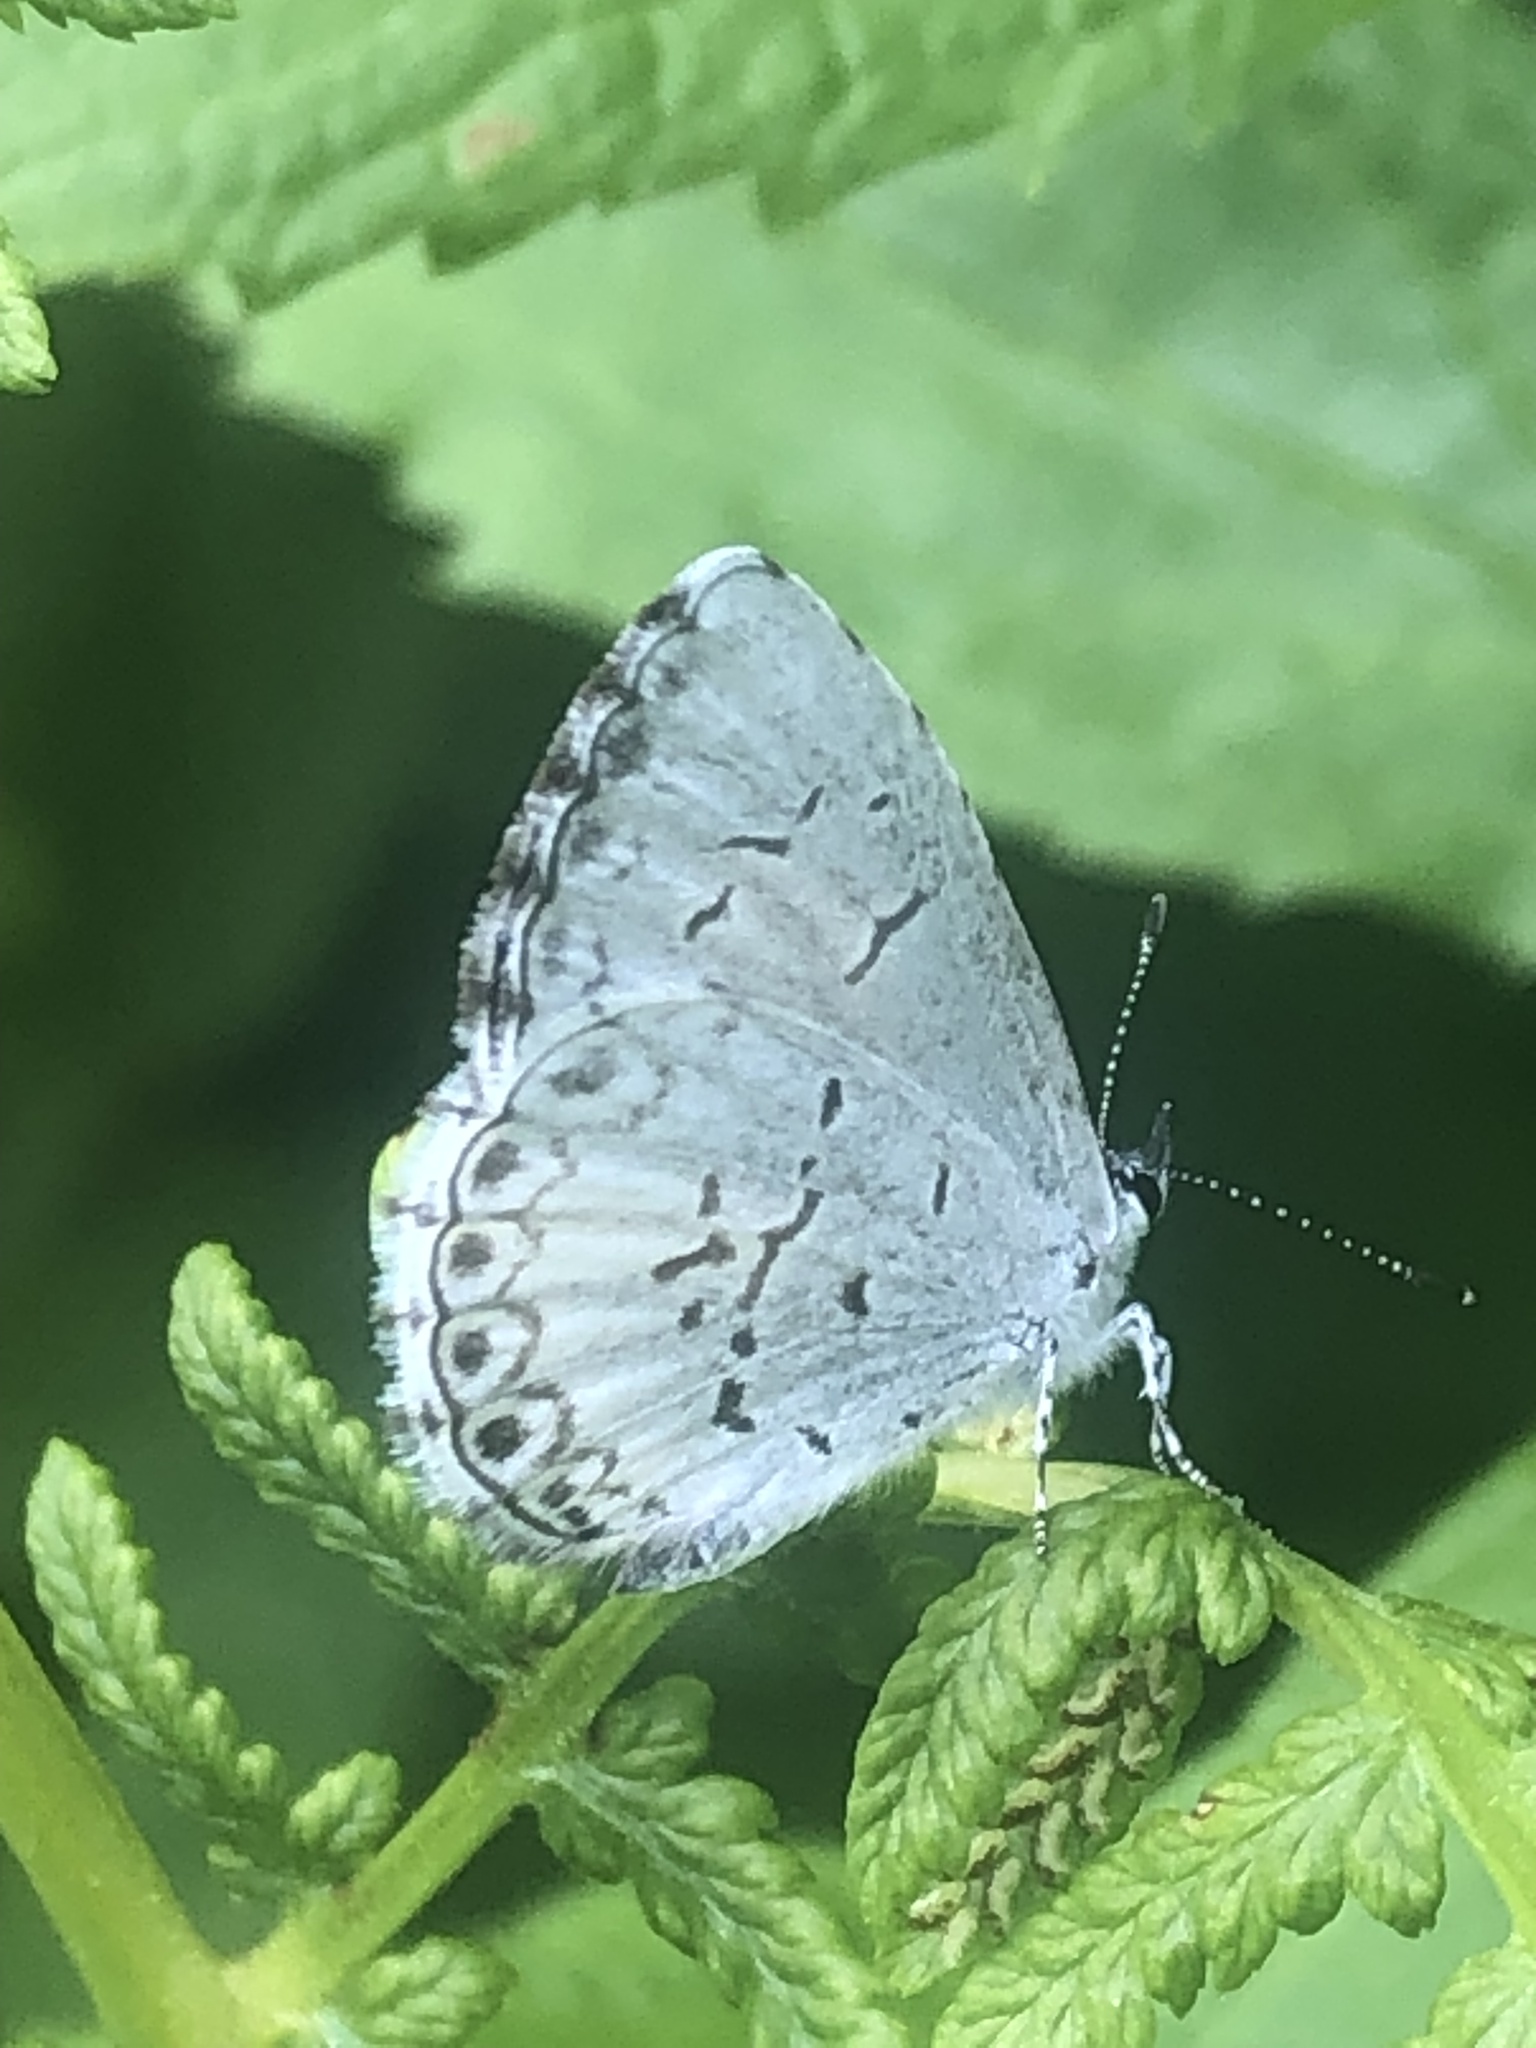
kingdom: Animalia
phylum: Arthropoda
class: Insecta
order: Lepidoptera
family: Lycaenidae
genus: Cyaniris
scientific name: Cyaniris neglecta
